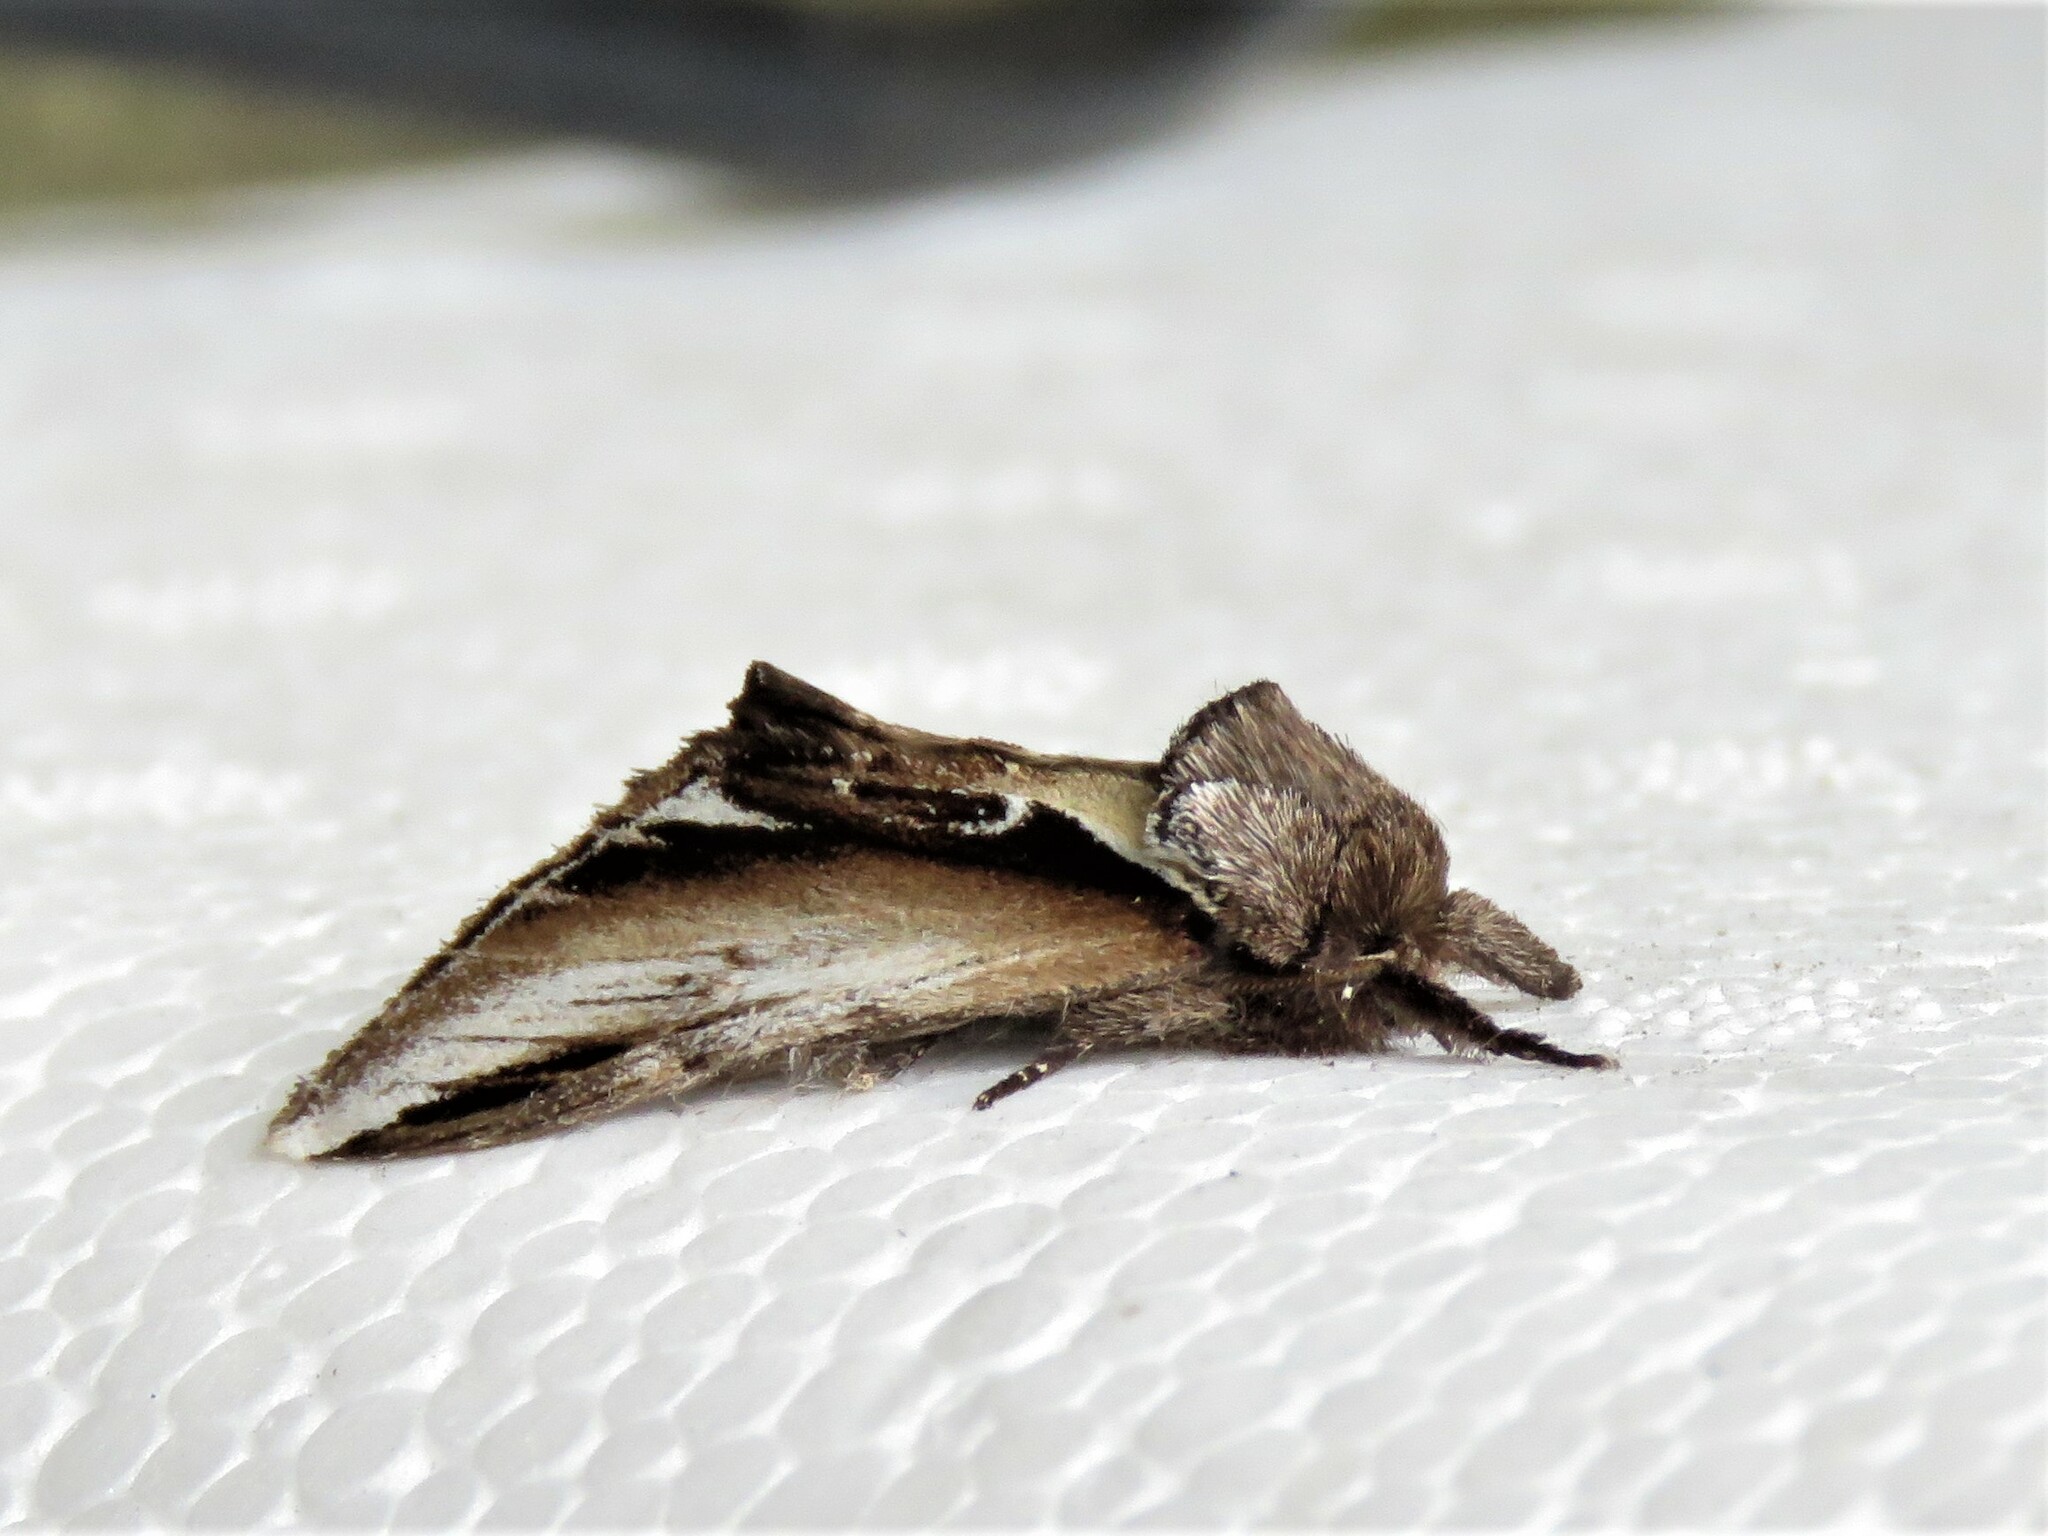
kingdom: Animalia
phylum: Arthropoda
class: Insecta
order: Lepidoptera
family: Notodontidae
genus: Pheosia
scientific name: Pheosia gnoma
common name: Lesser swallow prominent
